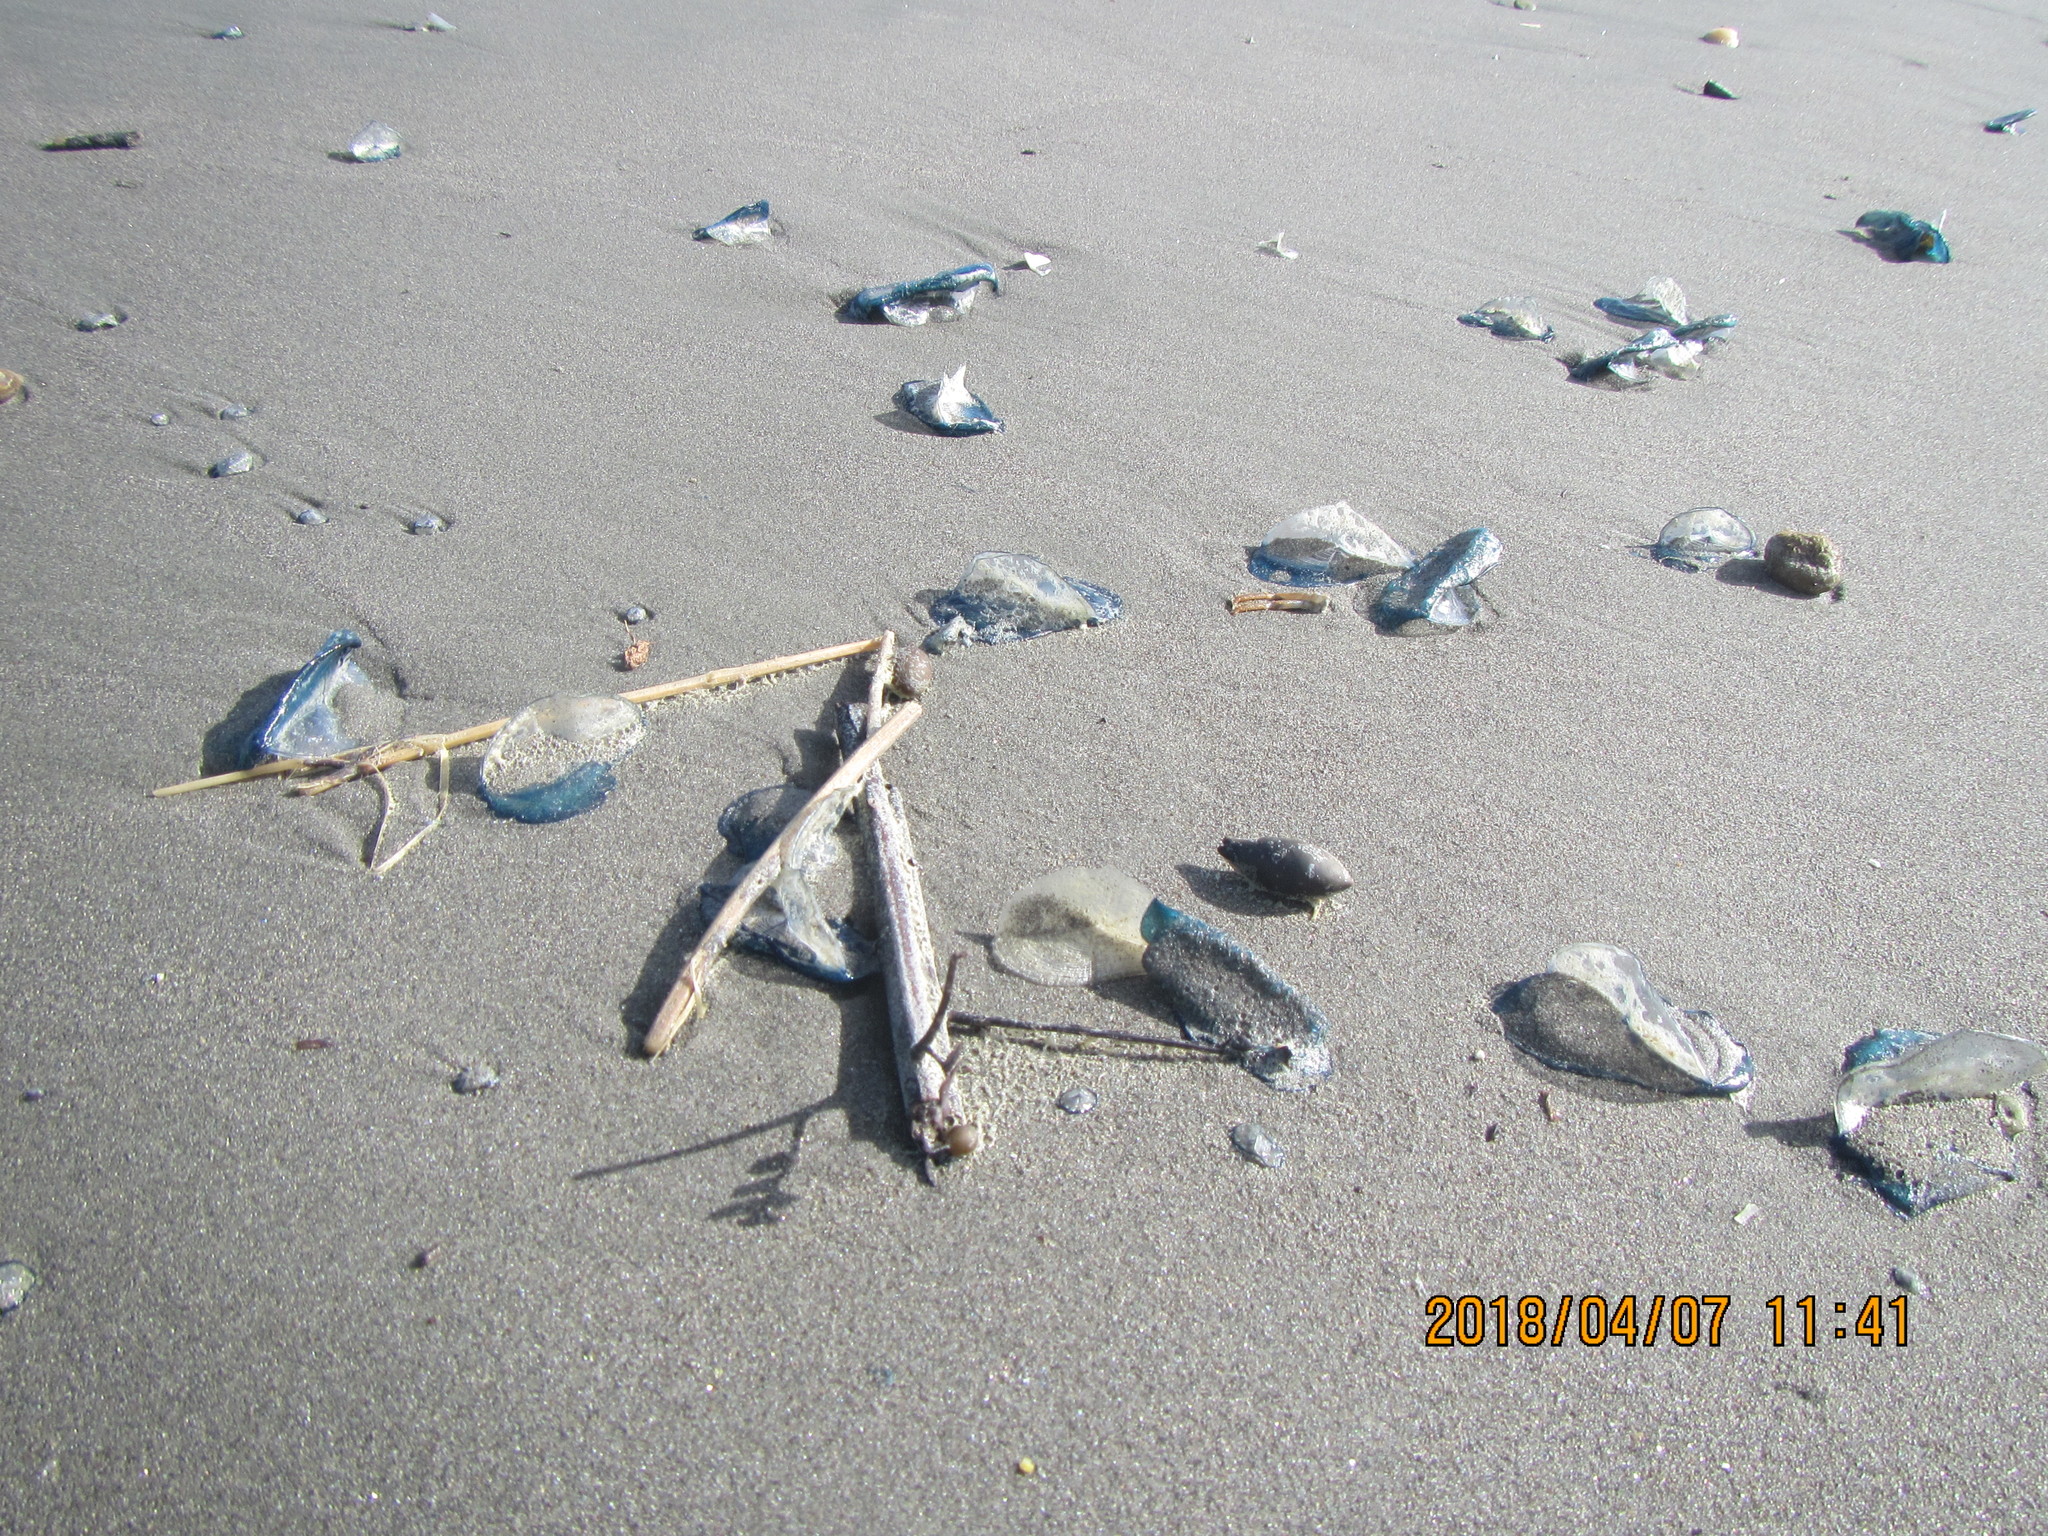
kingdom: Animalia
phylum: Cnidaria
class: Hydrozoa
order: Anthoathecata
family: Porpitidae
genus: Velella
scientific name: Velella velella
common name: By-the-wind-sailor
